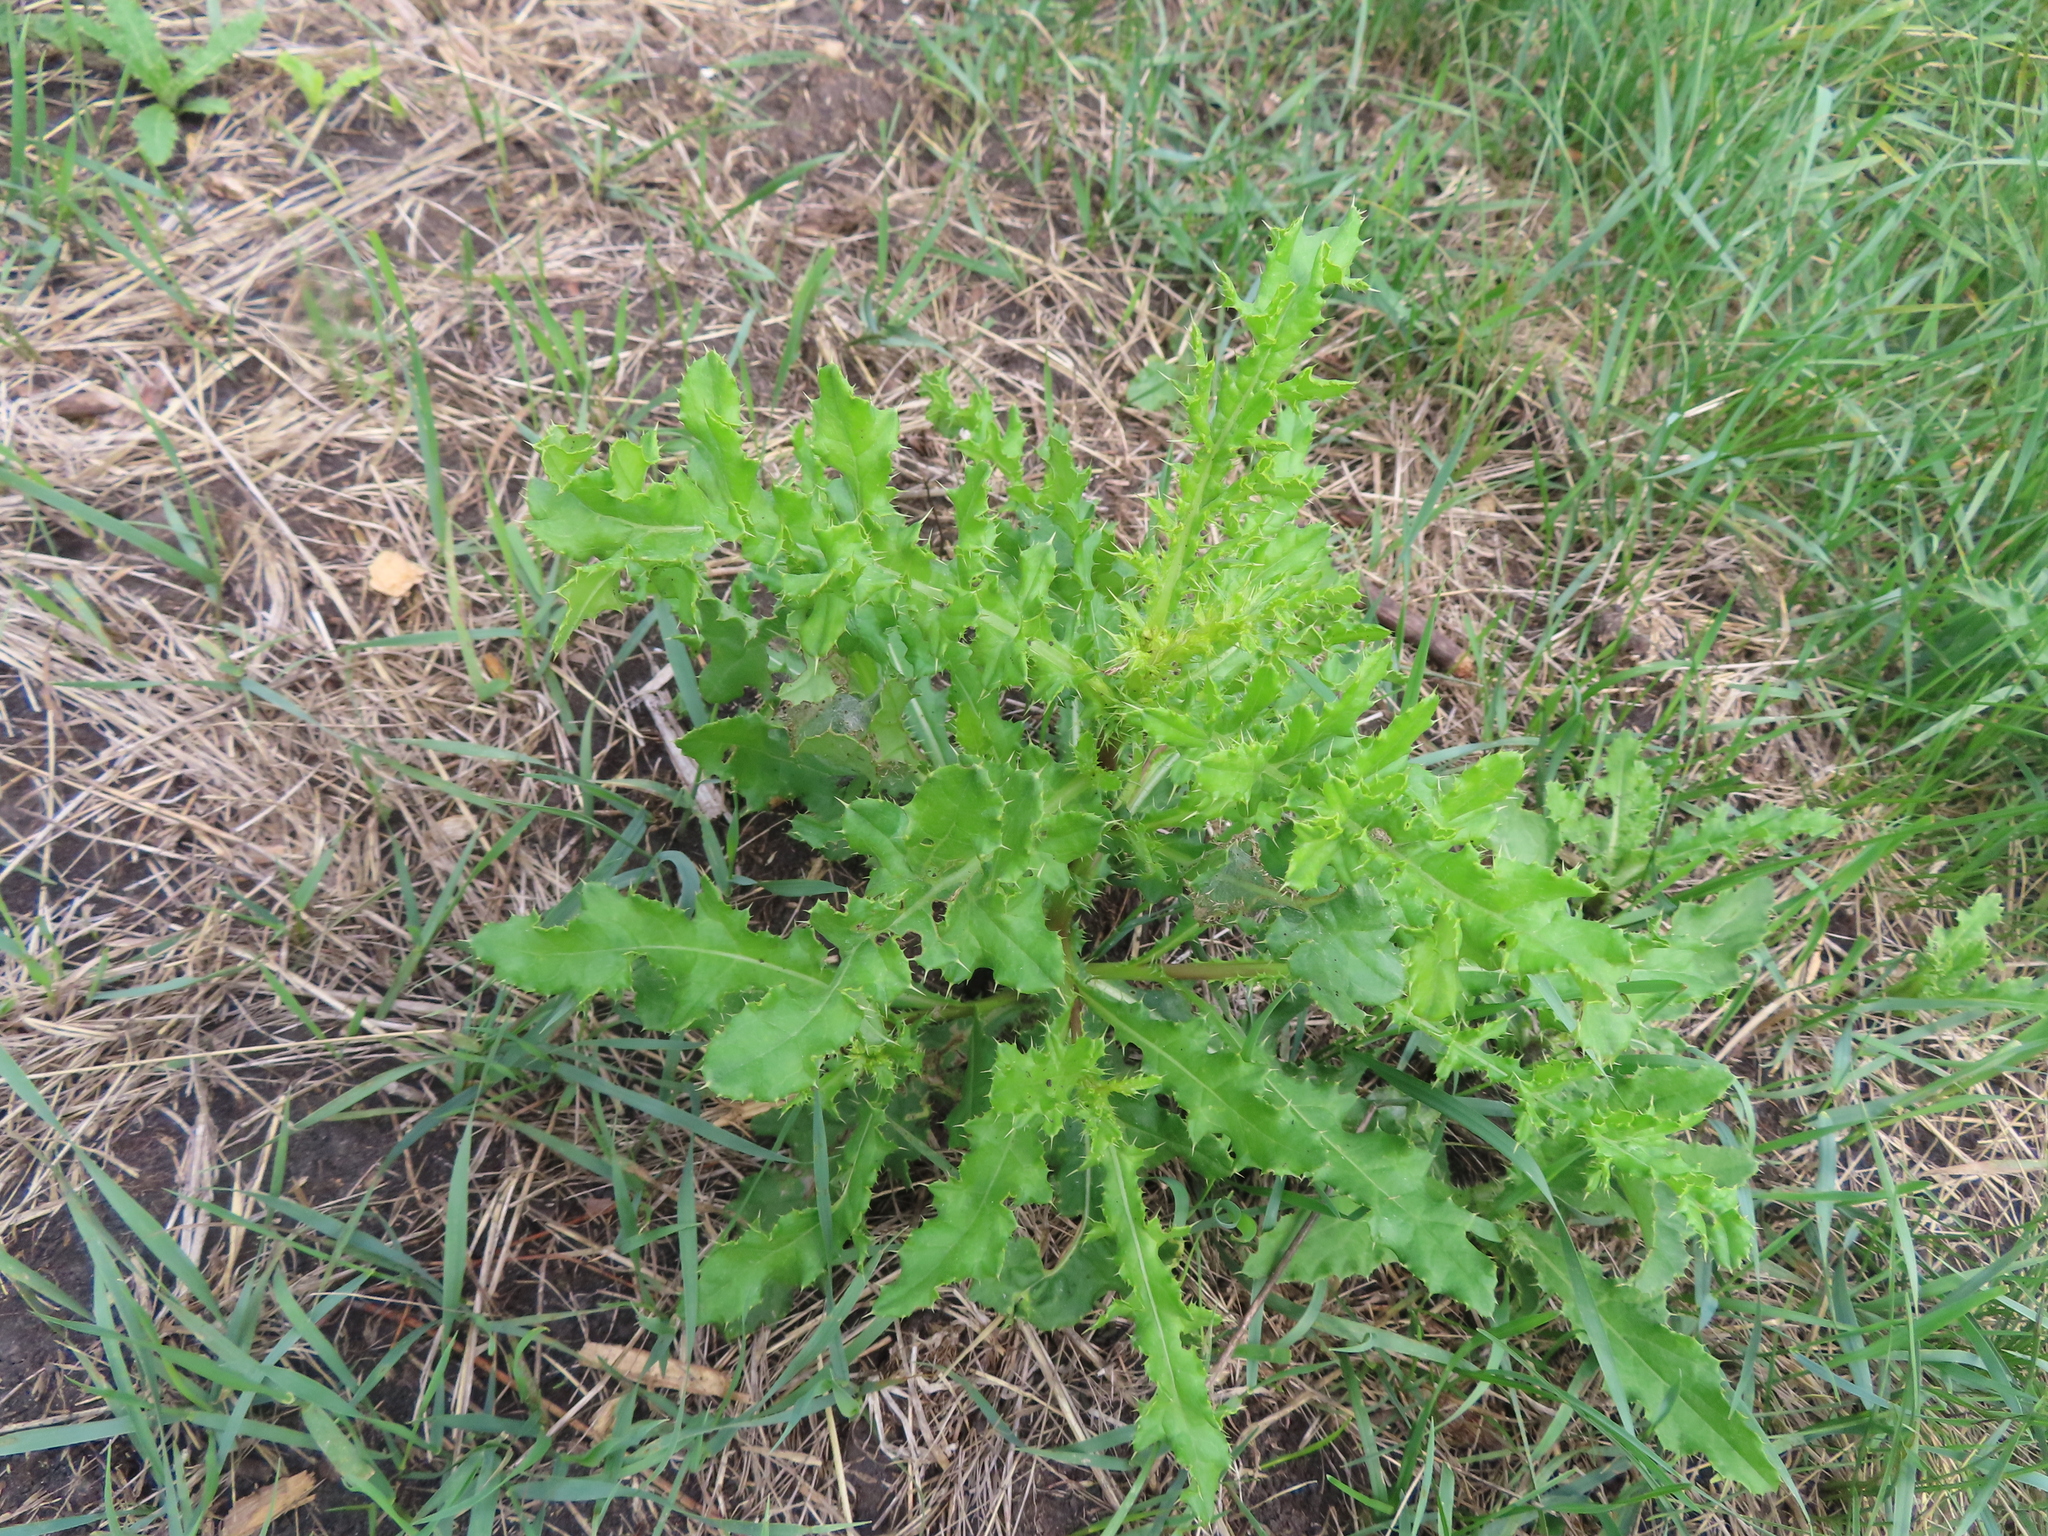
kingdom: Plantae
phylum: Tracheophyta
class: Magnoliopsida
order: Asterales
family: Asteraceae
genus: Cirsium
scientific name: Cirsium arvense
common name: Creeping thistle
